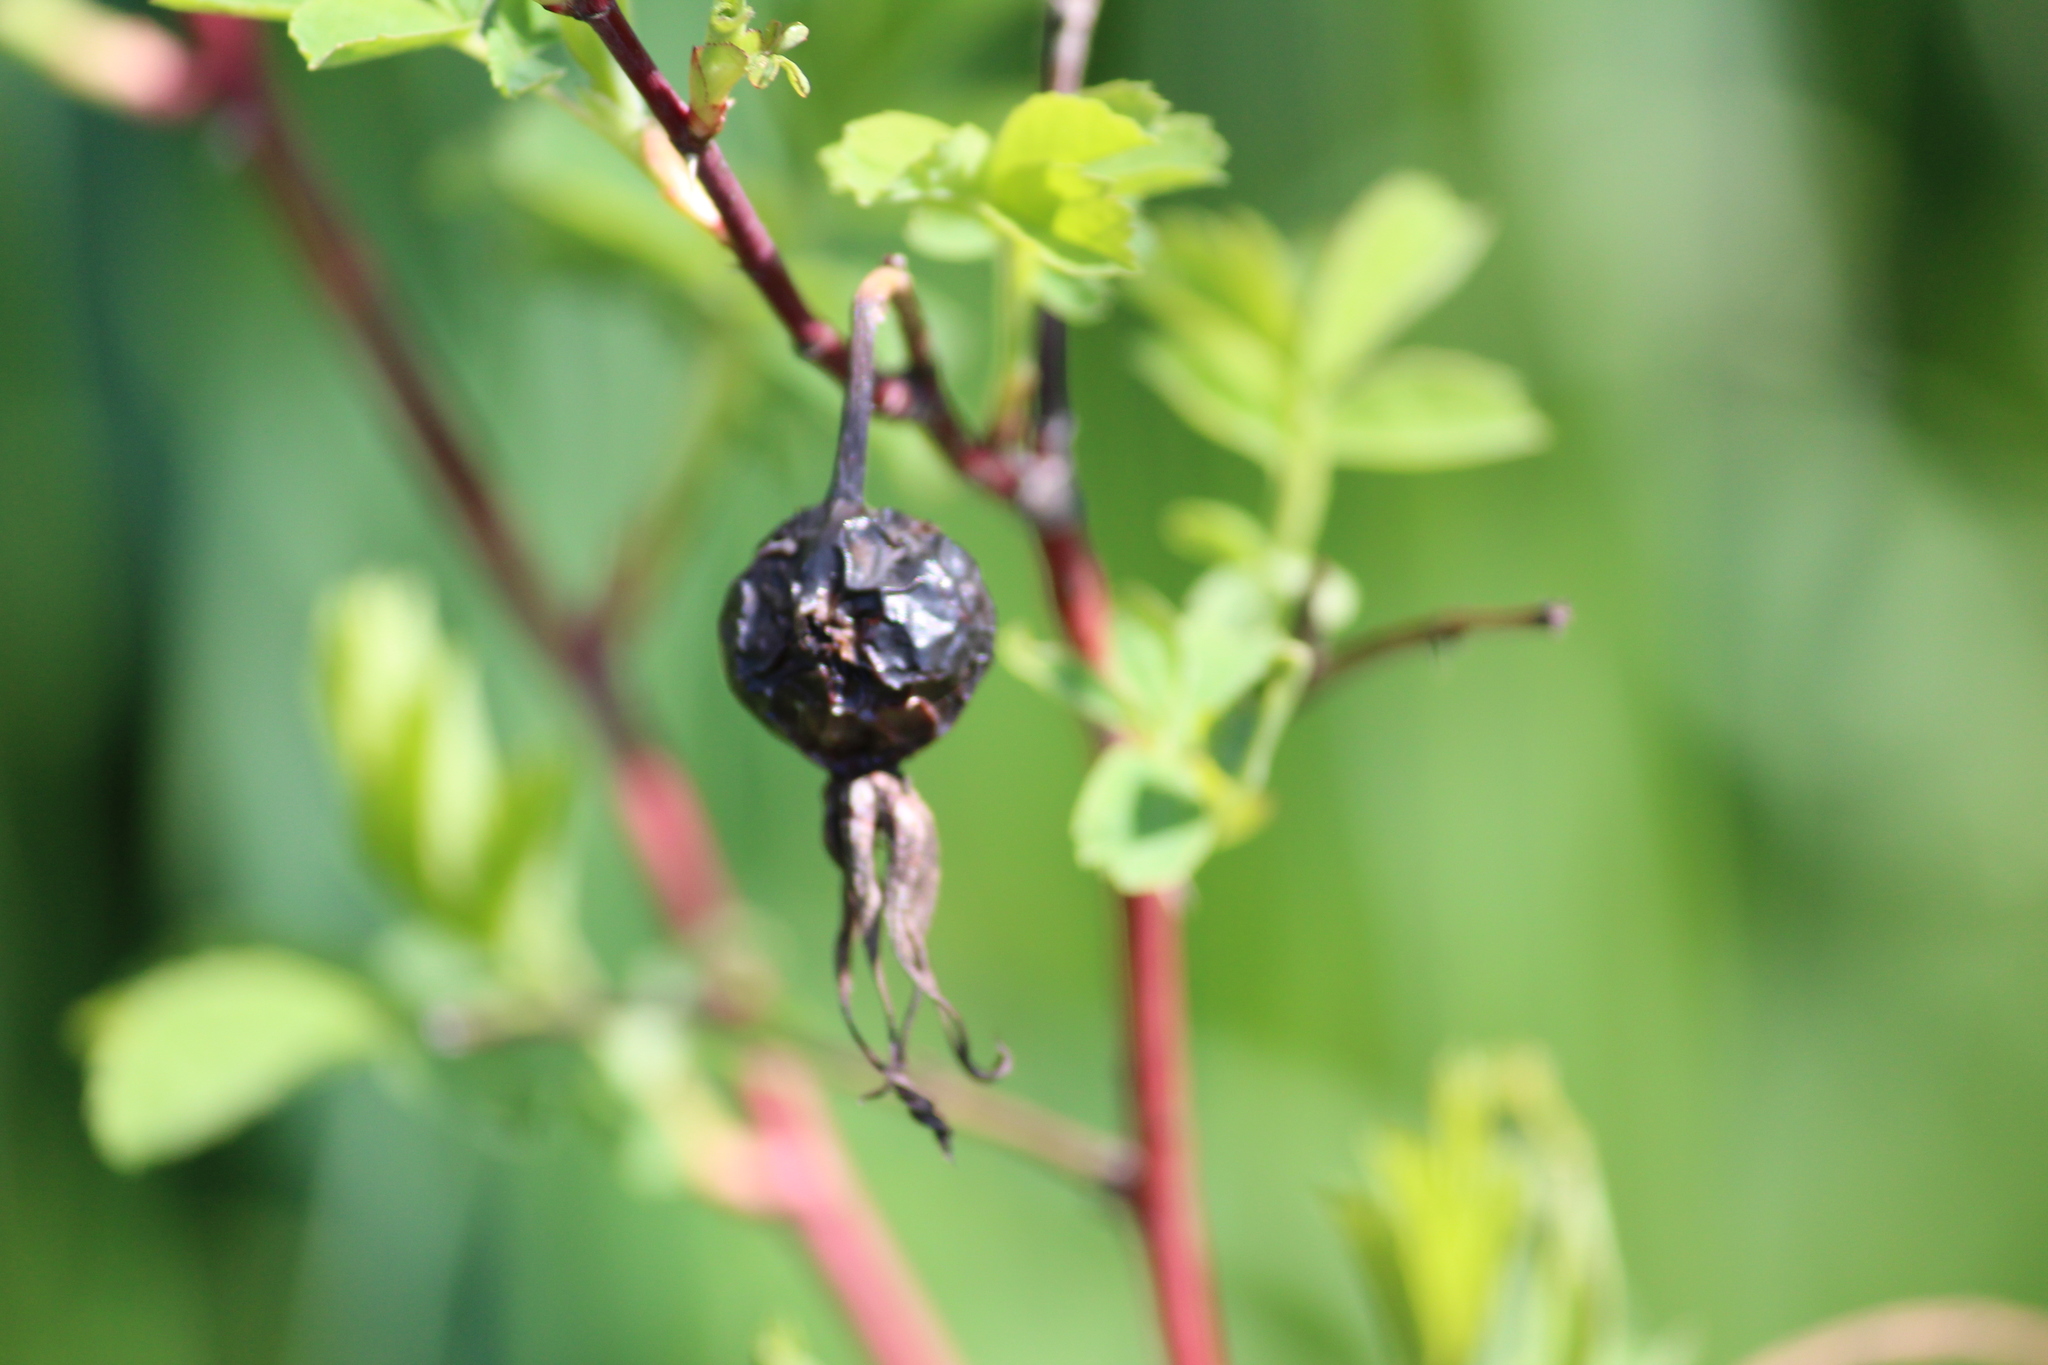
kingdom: Plantae
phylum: Tracheophyta
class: Magnoliopsida
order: Rosales
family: Rosaceae
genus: Rosa
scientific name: Rosa majalis
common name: Cinnamon rose
